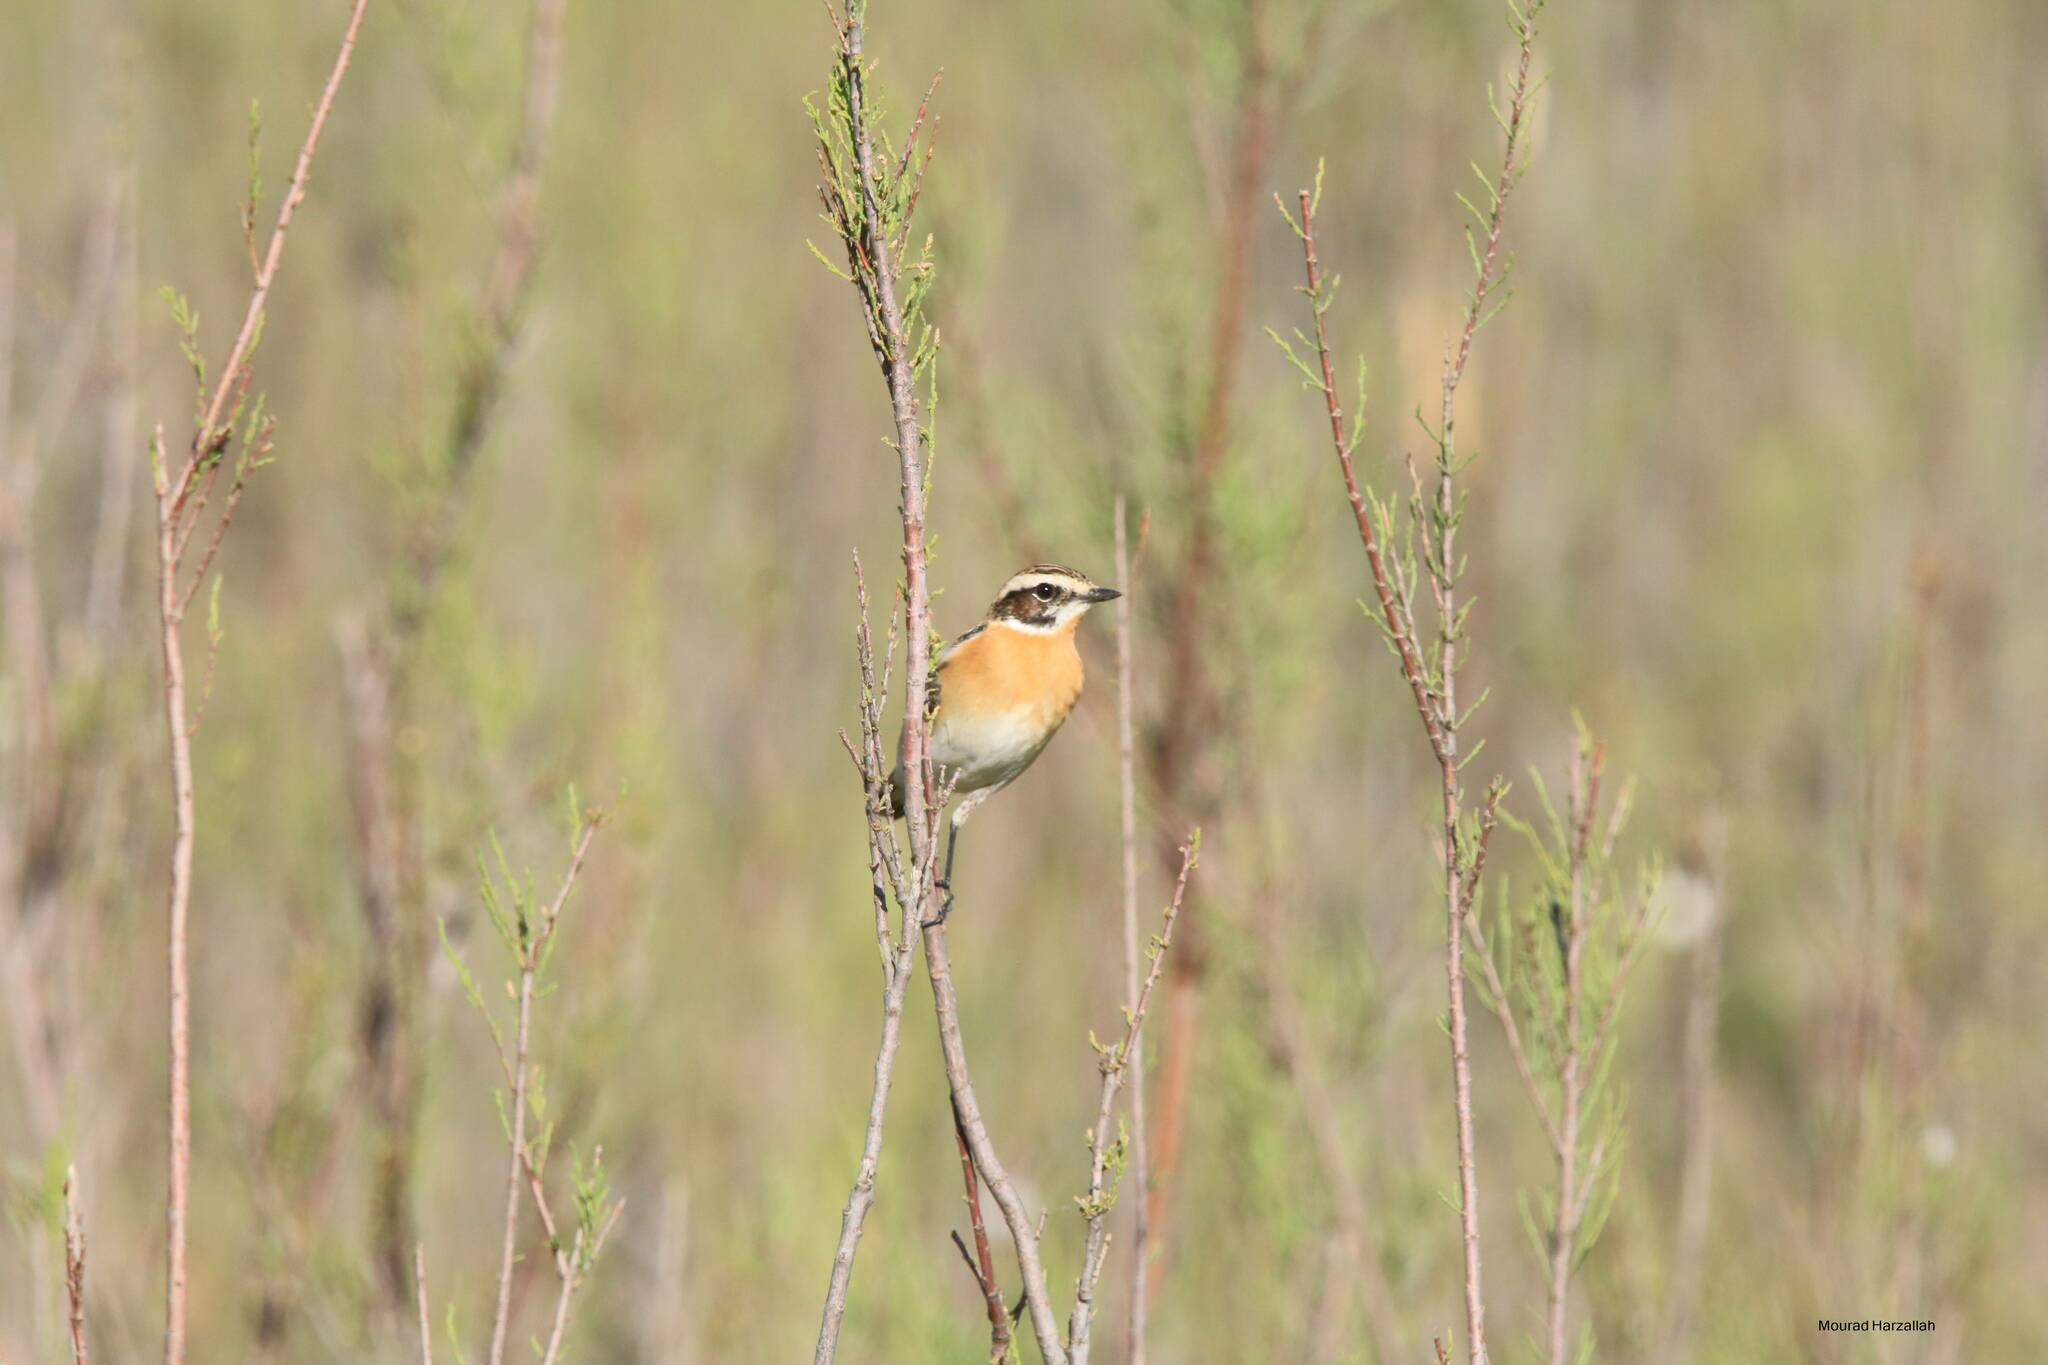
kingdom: Animalia
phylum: Chordata
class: Aves
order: Passeriformes
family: Muscicapidae
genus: Saxicola
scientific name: Saxicola rubetra
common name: Whinchat
